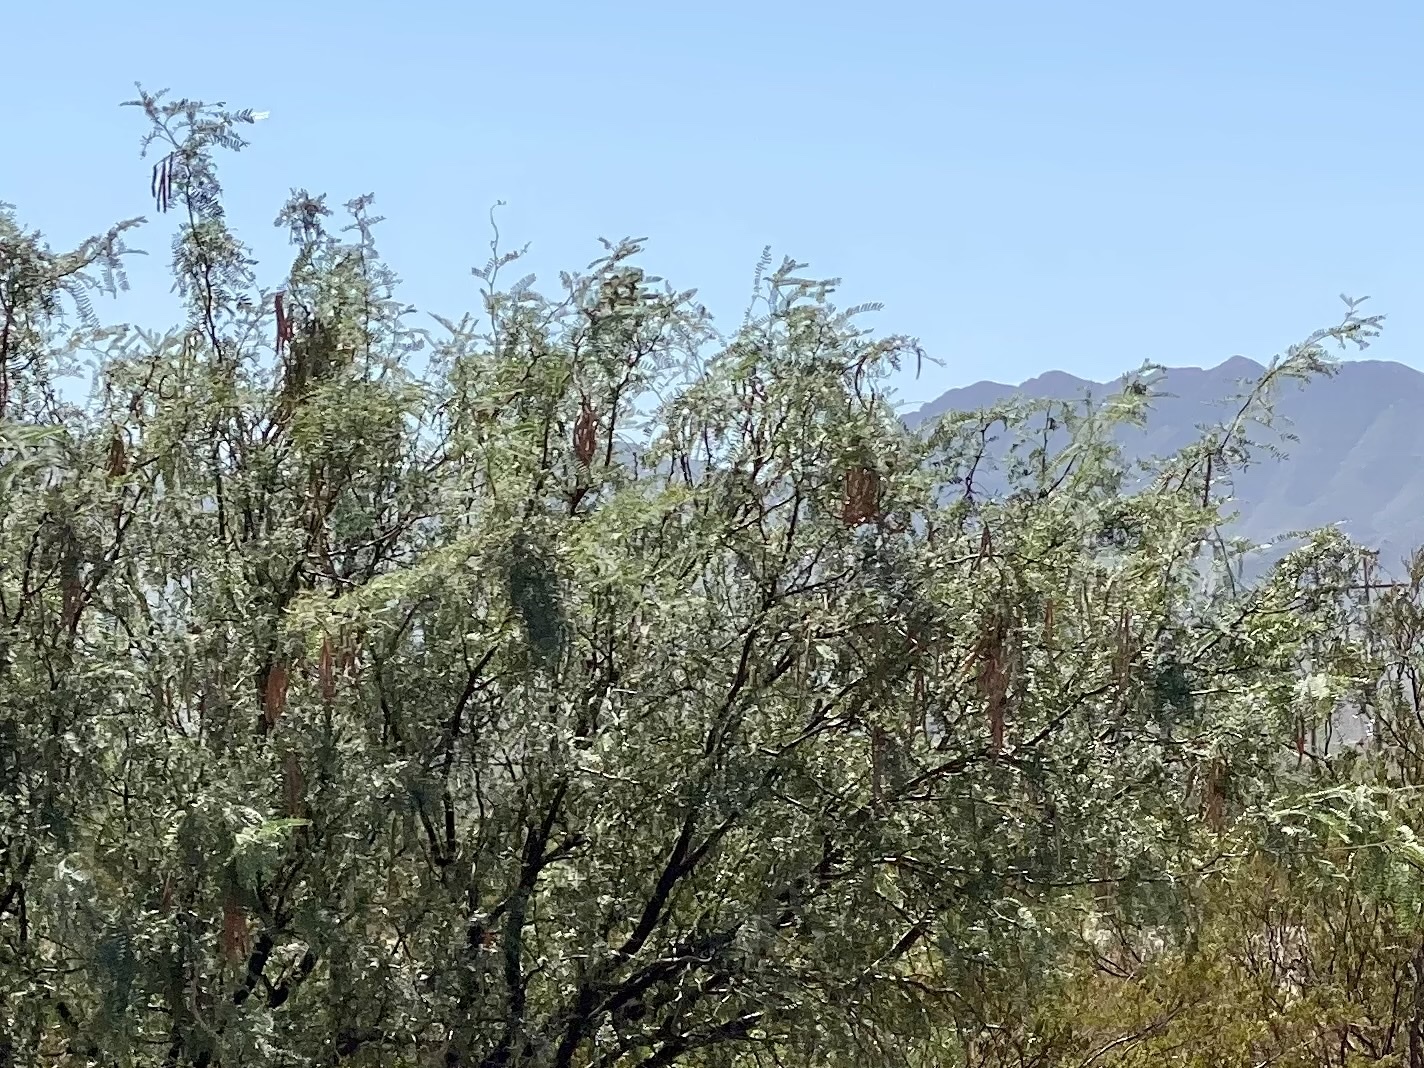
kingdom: Plantae
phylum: Tracheophyta
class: Magnoliopsida
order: Fabales
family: Fabaceae
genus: Prosopis
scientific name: Prosopis glandulosa
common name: Honey mesquite
